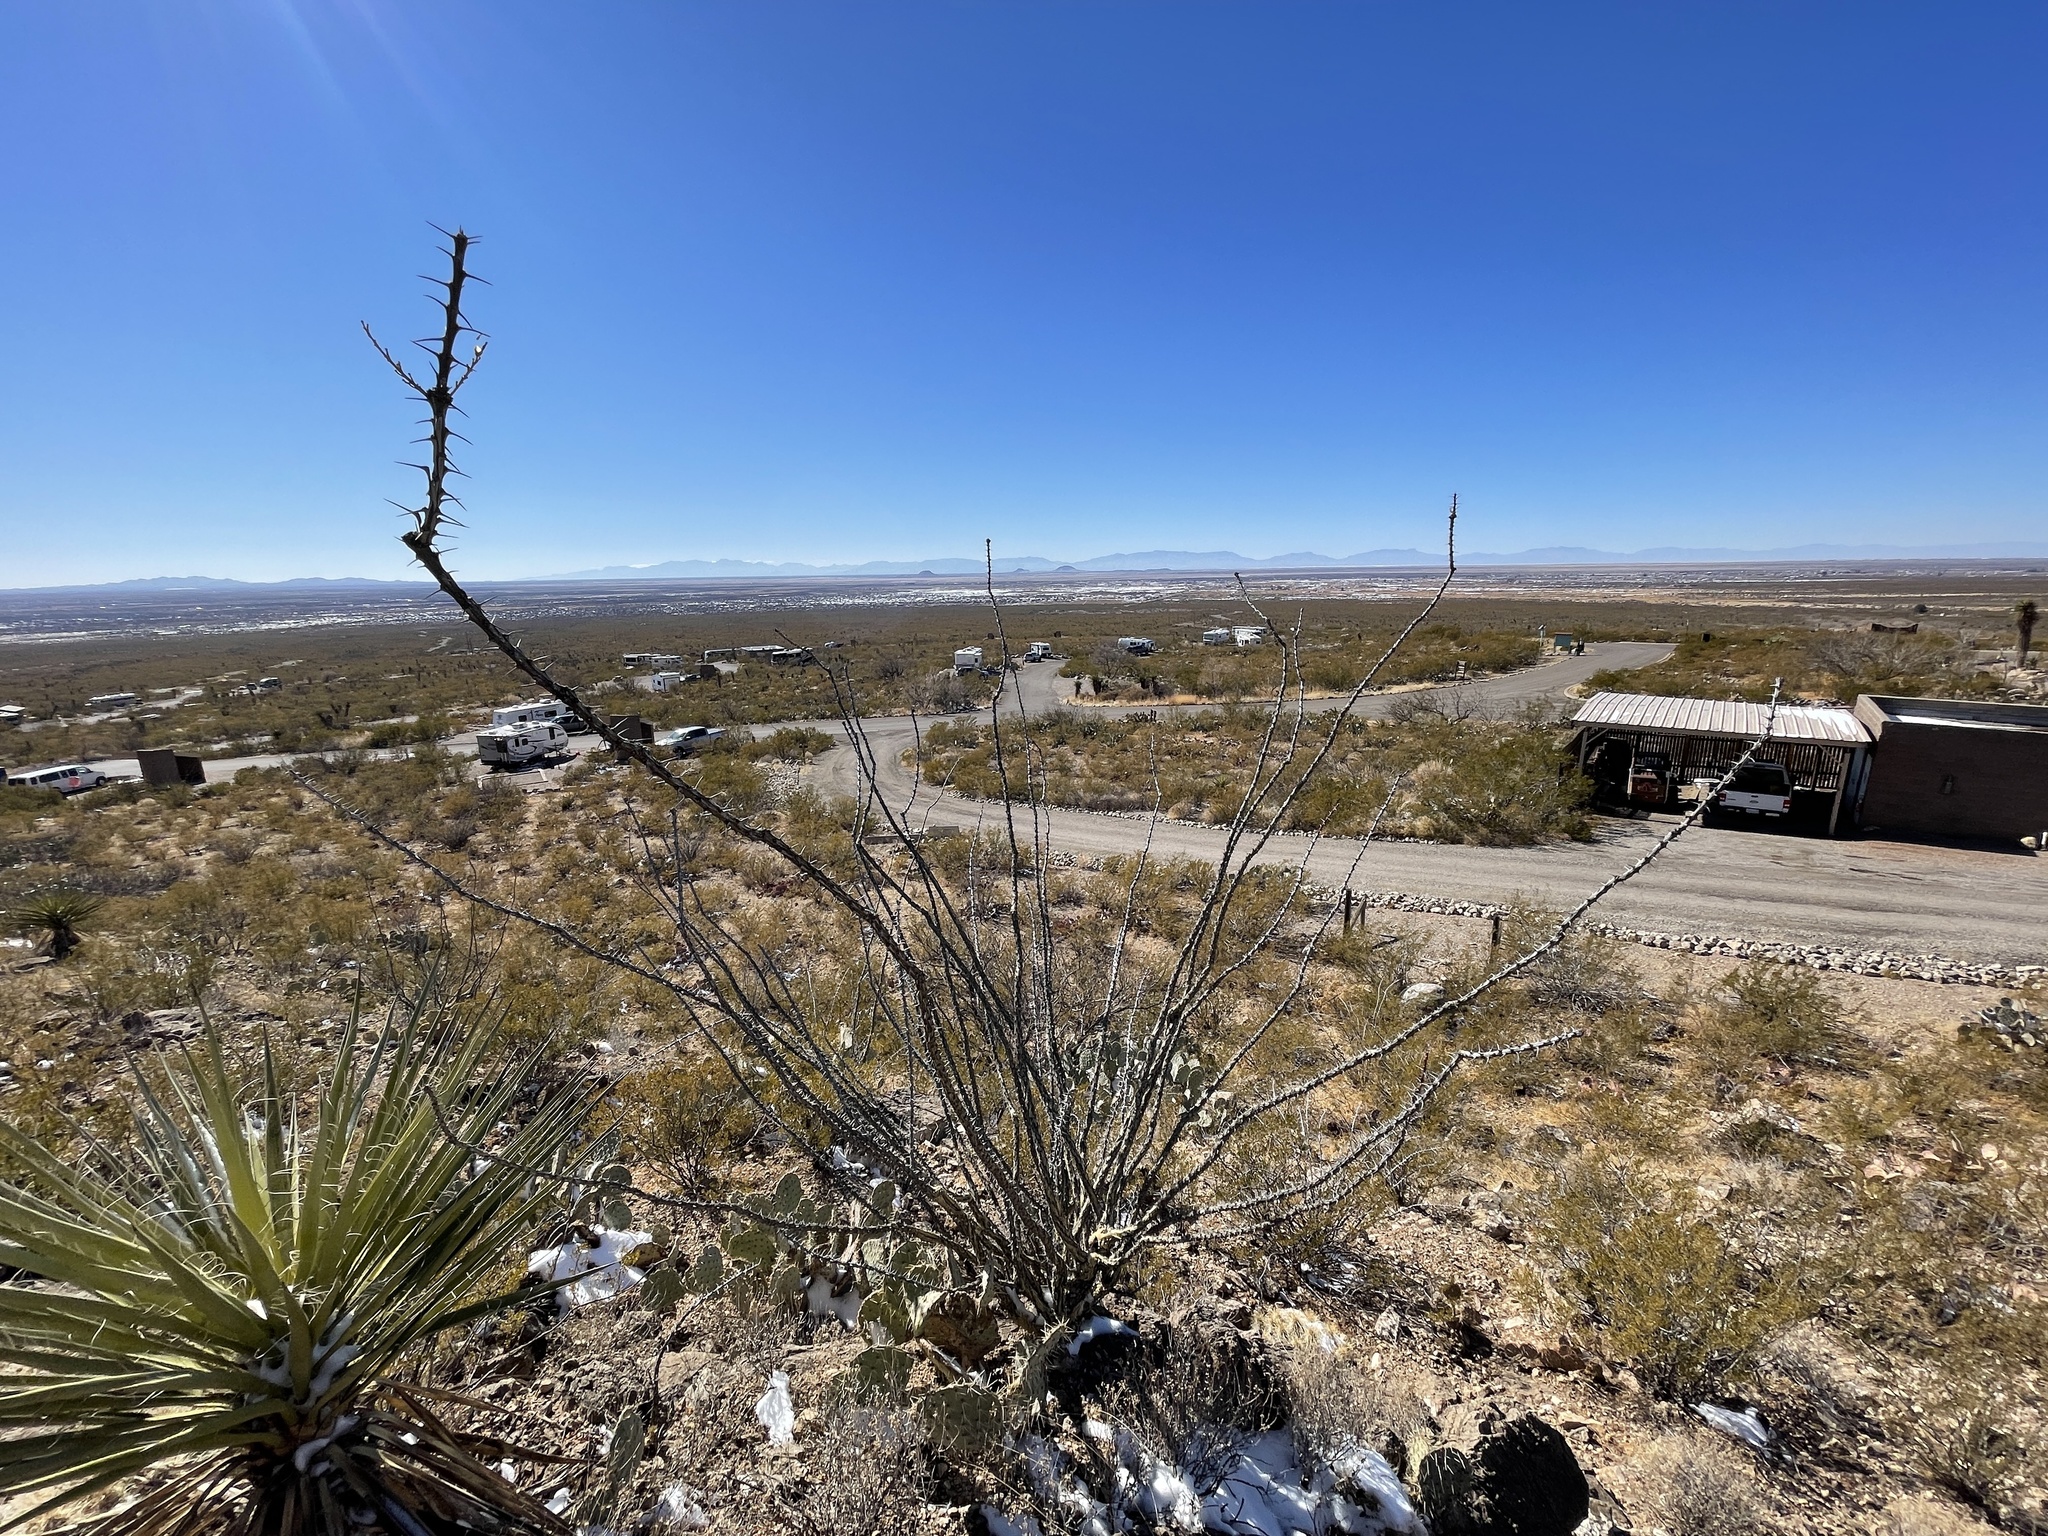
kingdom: Plantae
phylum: Tracheophyta
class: Magnoliopsida
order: Ericales
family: Fouquieriaceae
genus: Fouquieria
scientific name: Fouquieria splendens
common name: Vine-cactus
